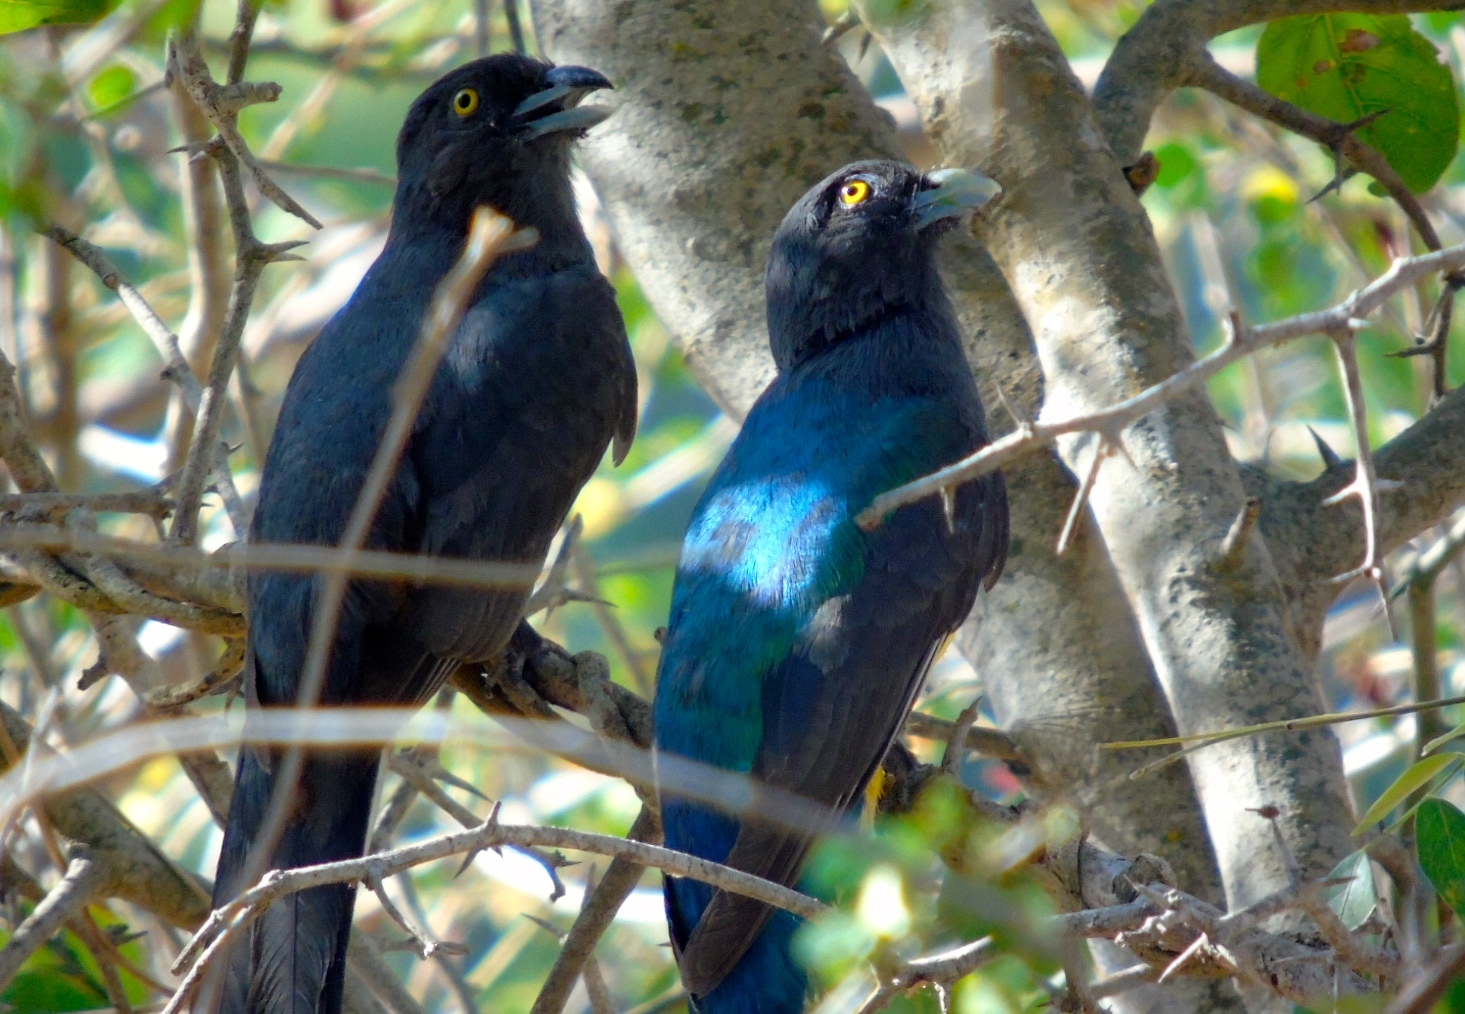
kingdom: Animalia
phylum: Chordata
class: Aves
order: Trogoniformes
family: Trogonidae
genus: Trogon
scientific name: Trogon citreolus
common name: Citreoline trogon
